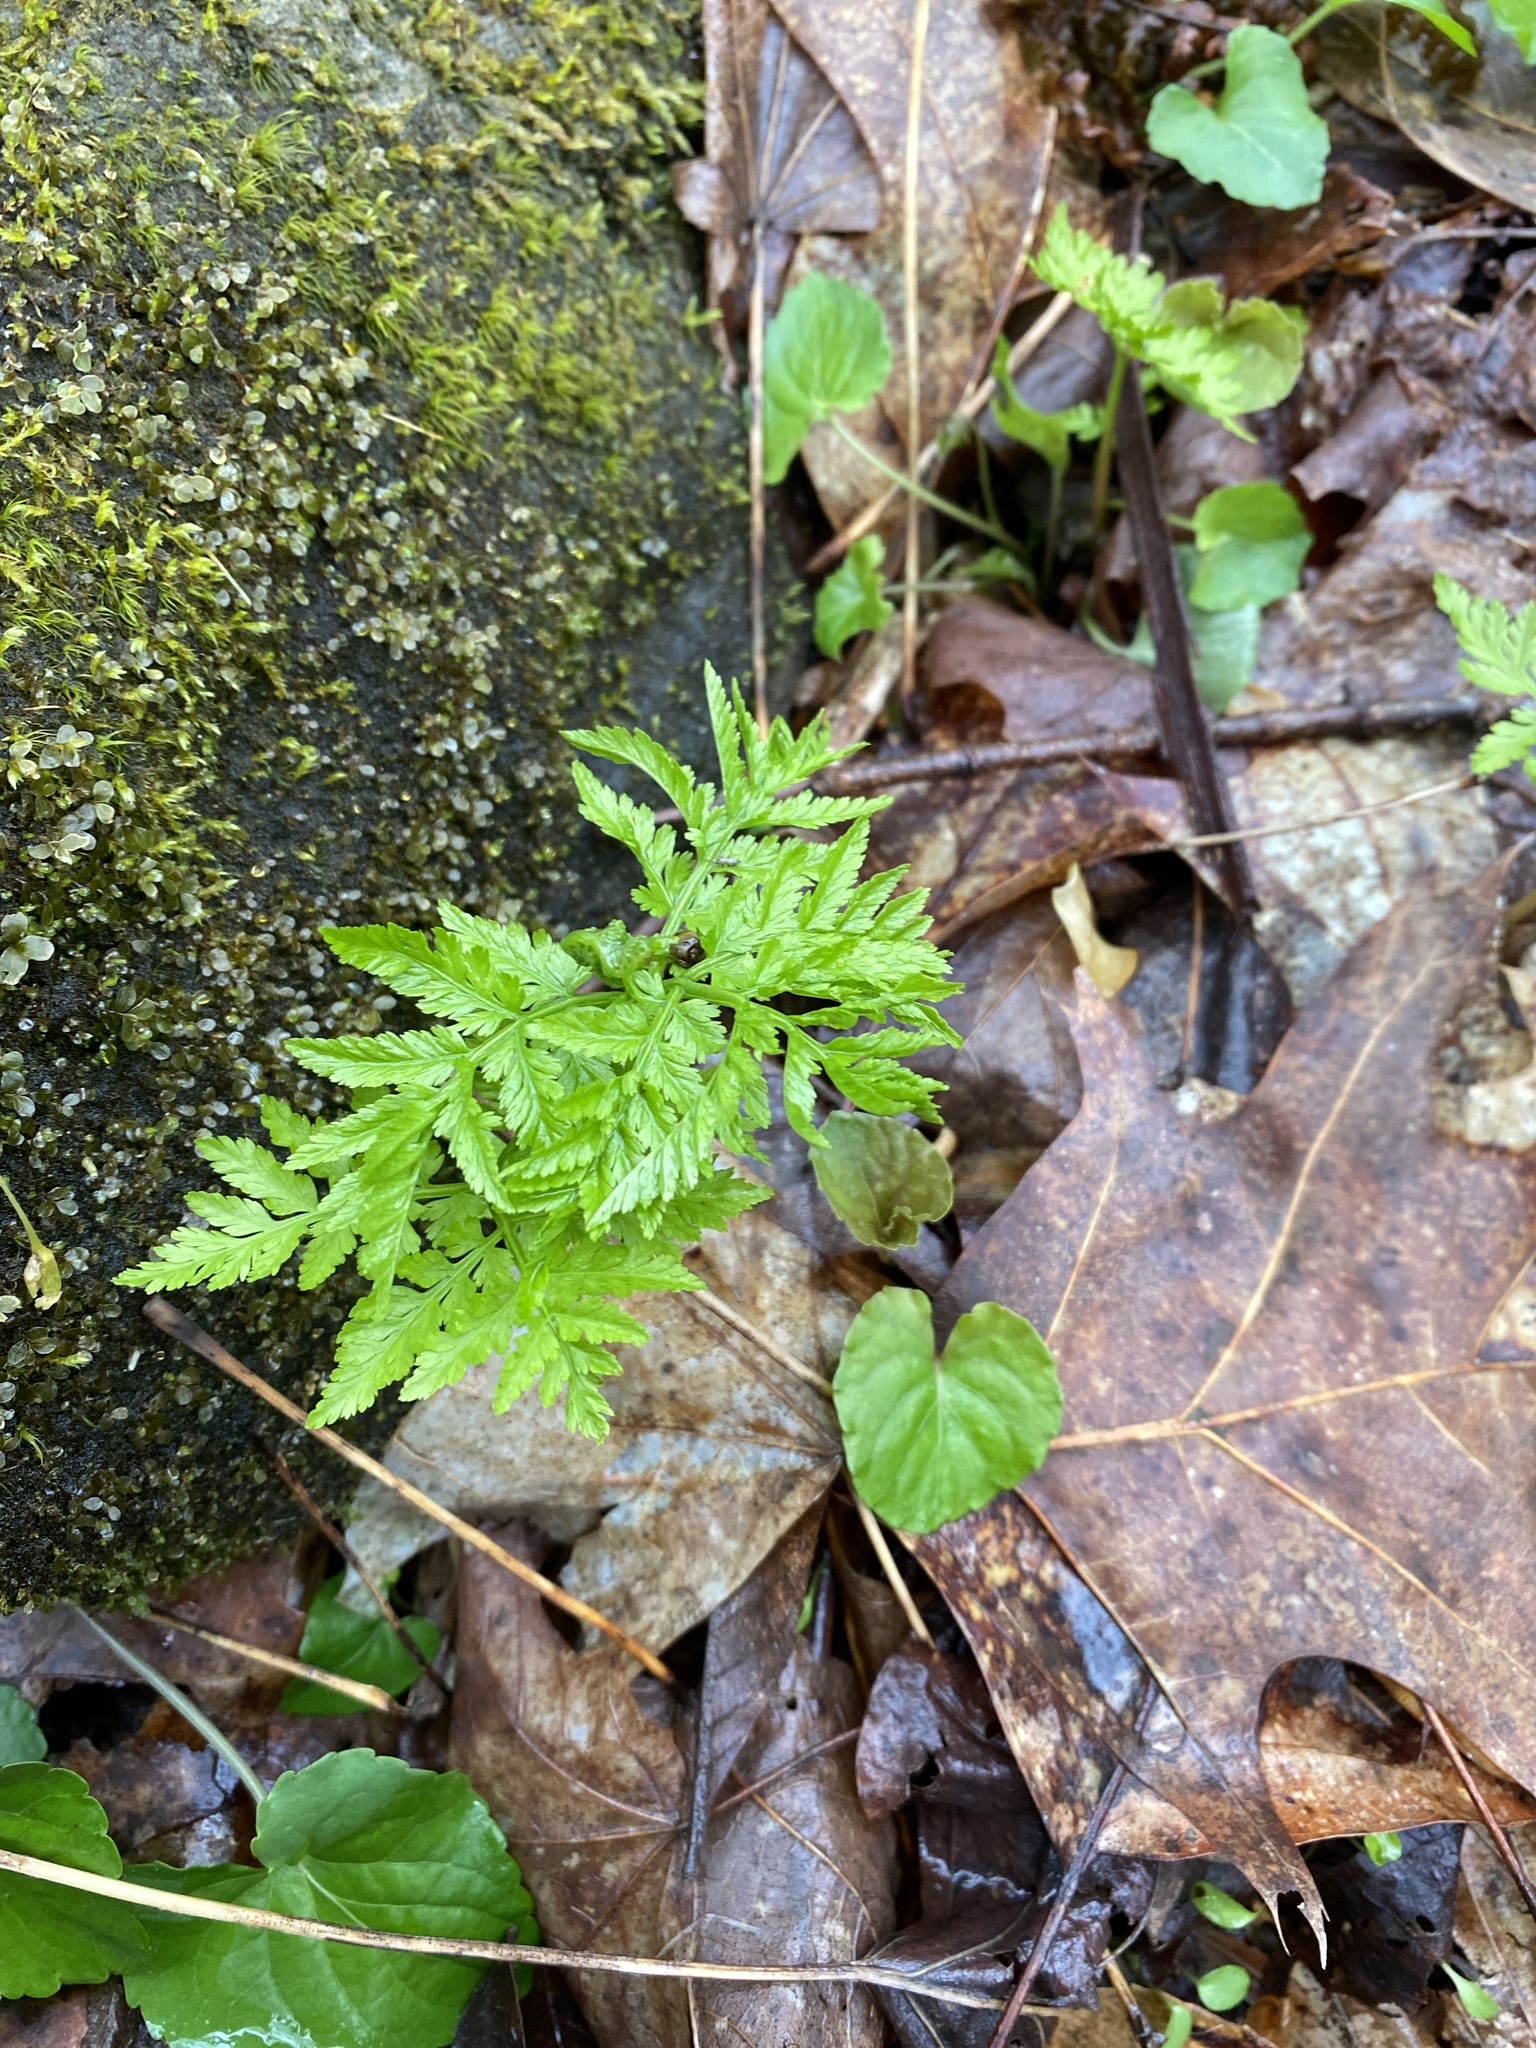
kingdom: Plantae
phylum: Tracheophyta
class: Polypodiopsida
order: Ophioglossales
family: Ophioglossaceae
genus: Botrypus
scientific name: Botrypus virginianus
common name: Common grapefern
